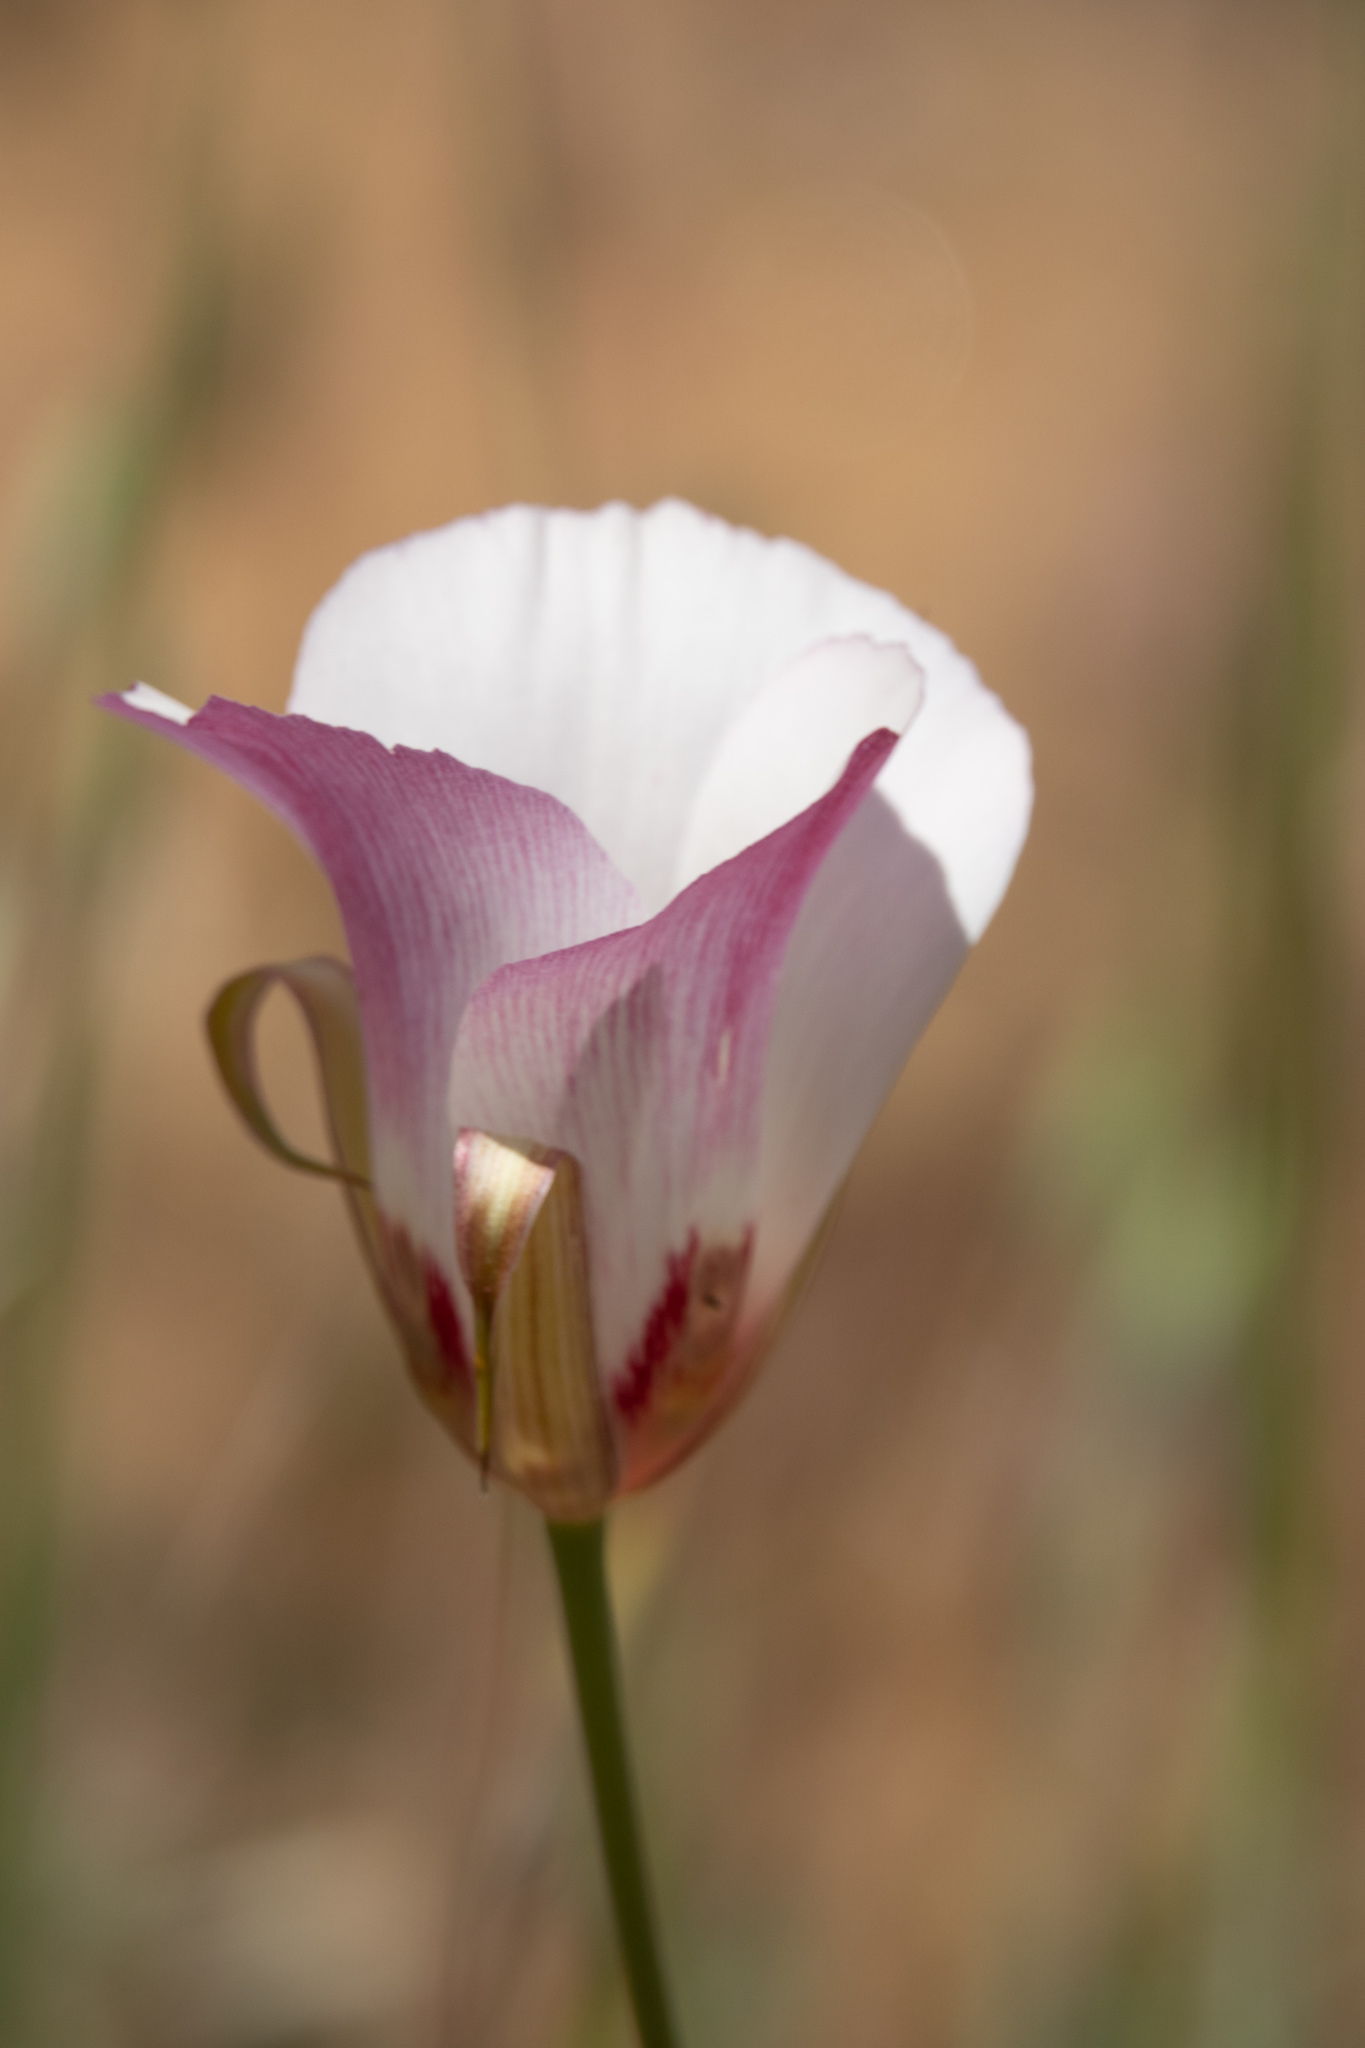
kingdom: Plantae
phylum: Tracheophyta
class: Liliopsida
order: Liliales
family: Liliaceae
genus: Calochortus
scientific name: Calochortus simulans
